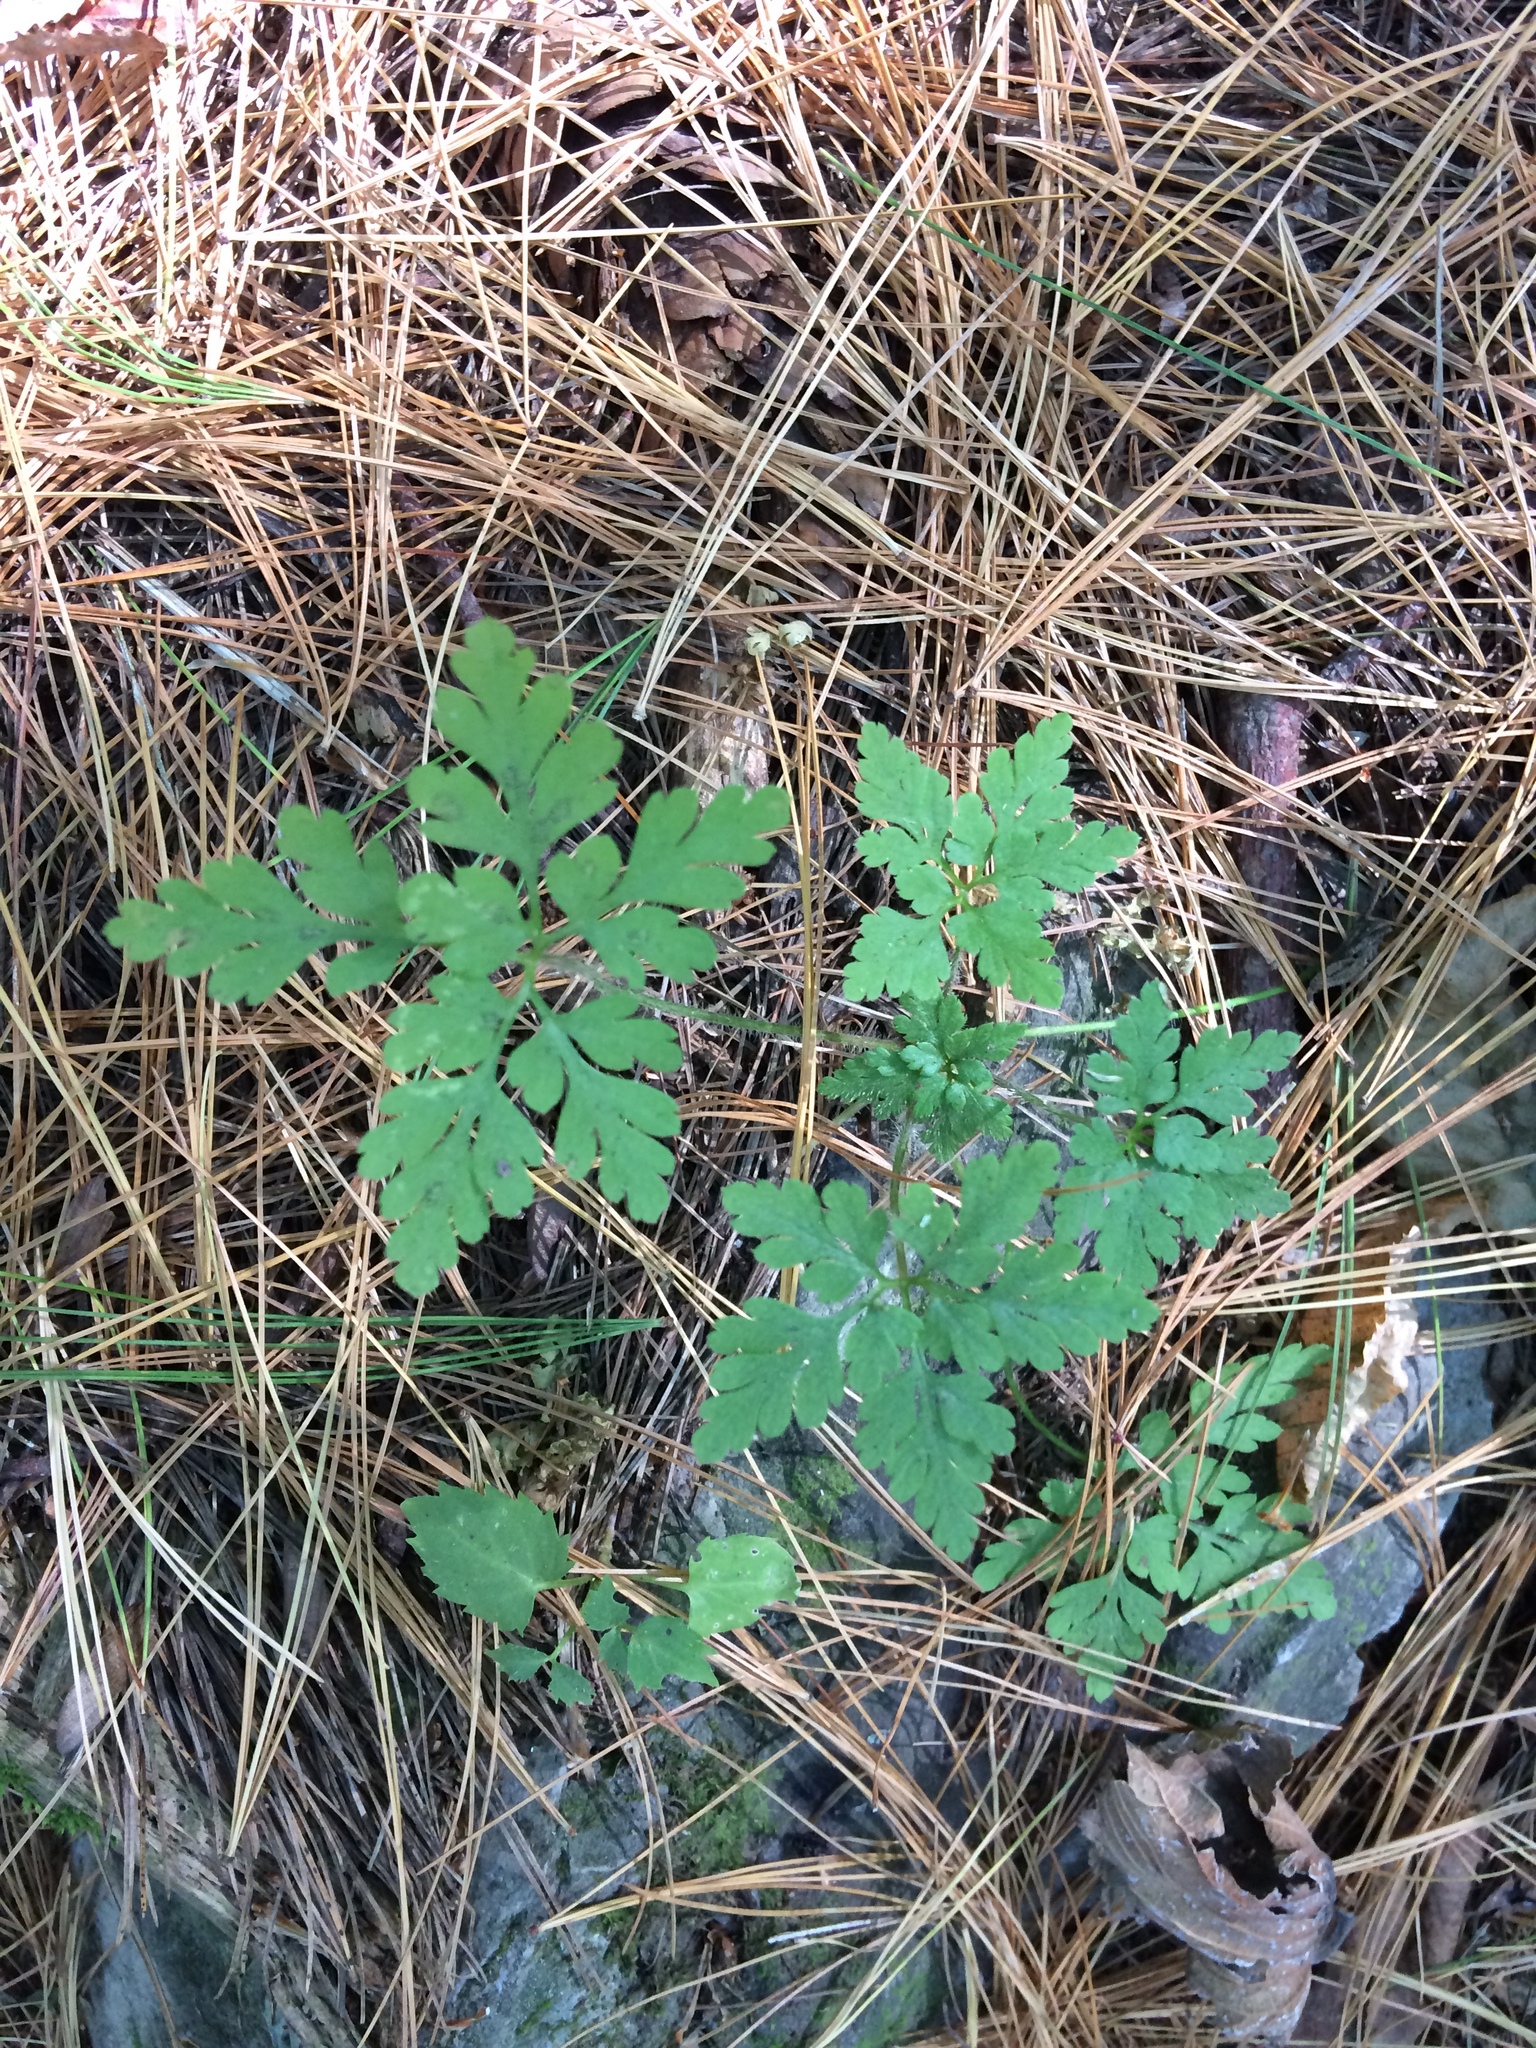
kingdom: Plantae
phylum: Tracheophyta
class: Magnoliopsida
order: Geraniales
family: Geraniaceae
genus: Geranium
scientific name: Geranium robertianum
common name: Herb-robert
